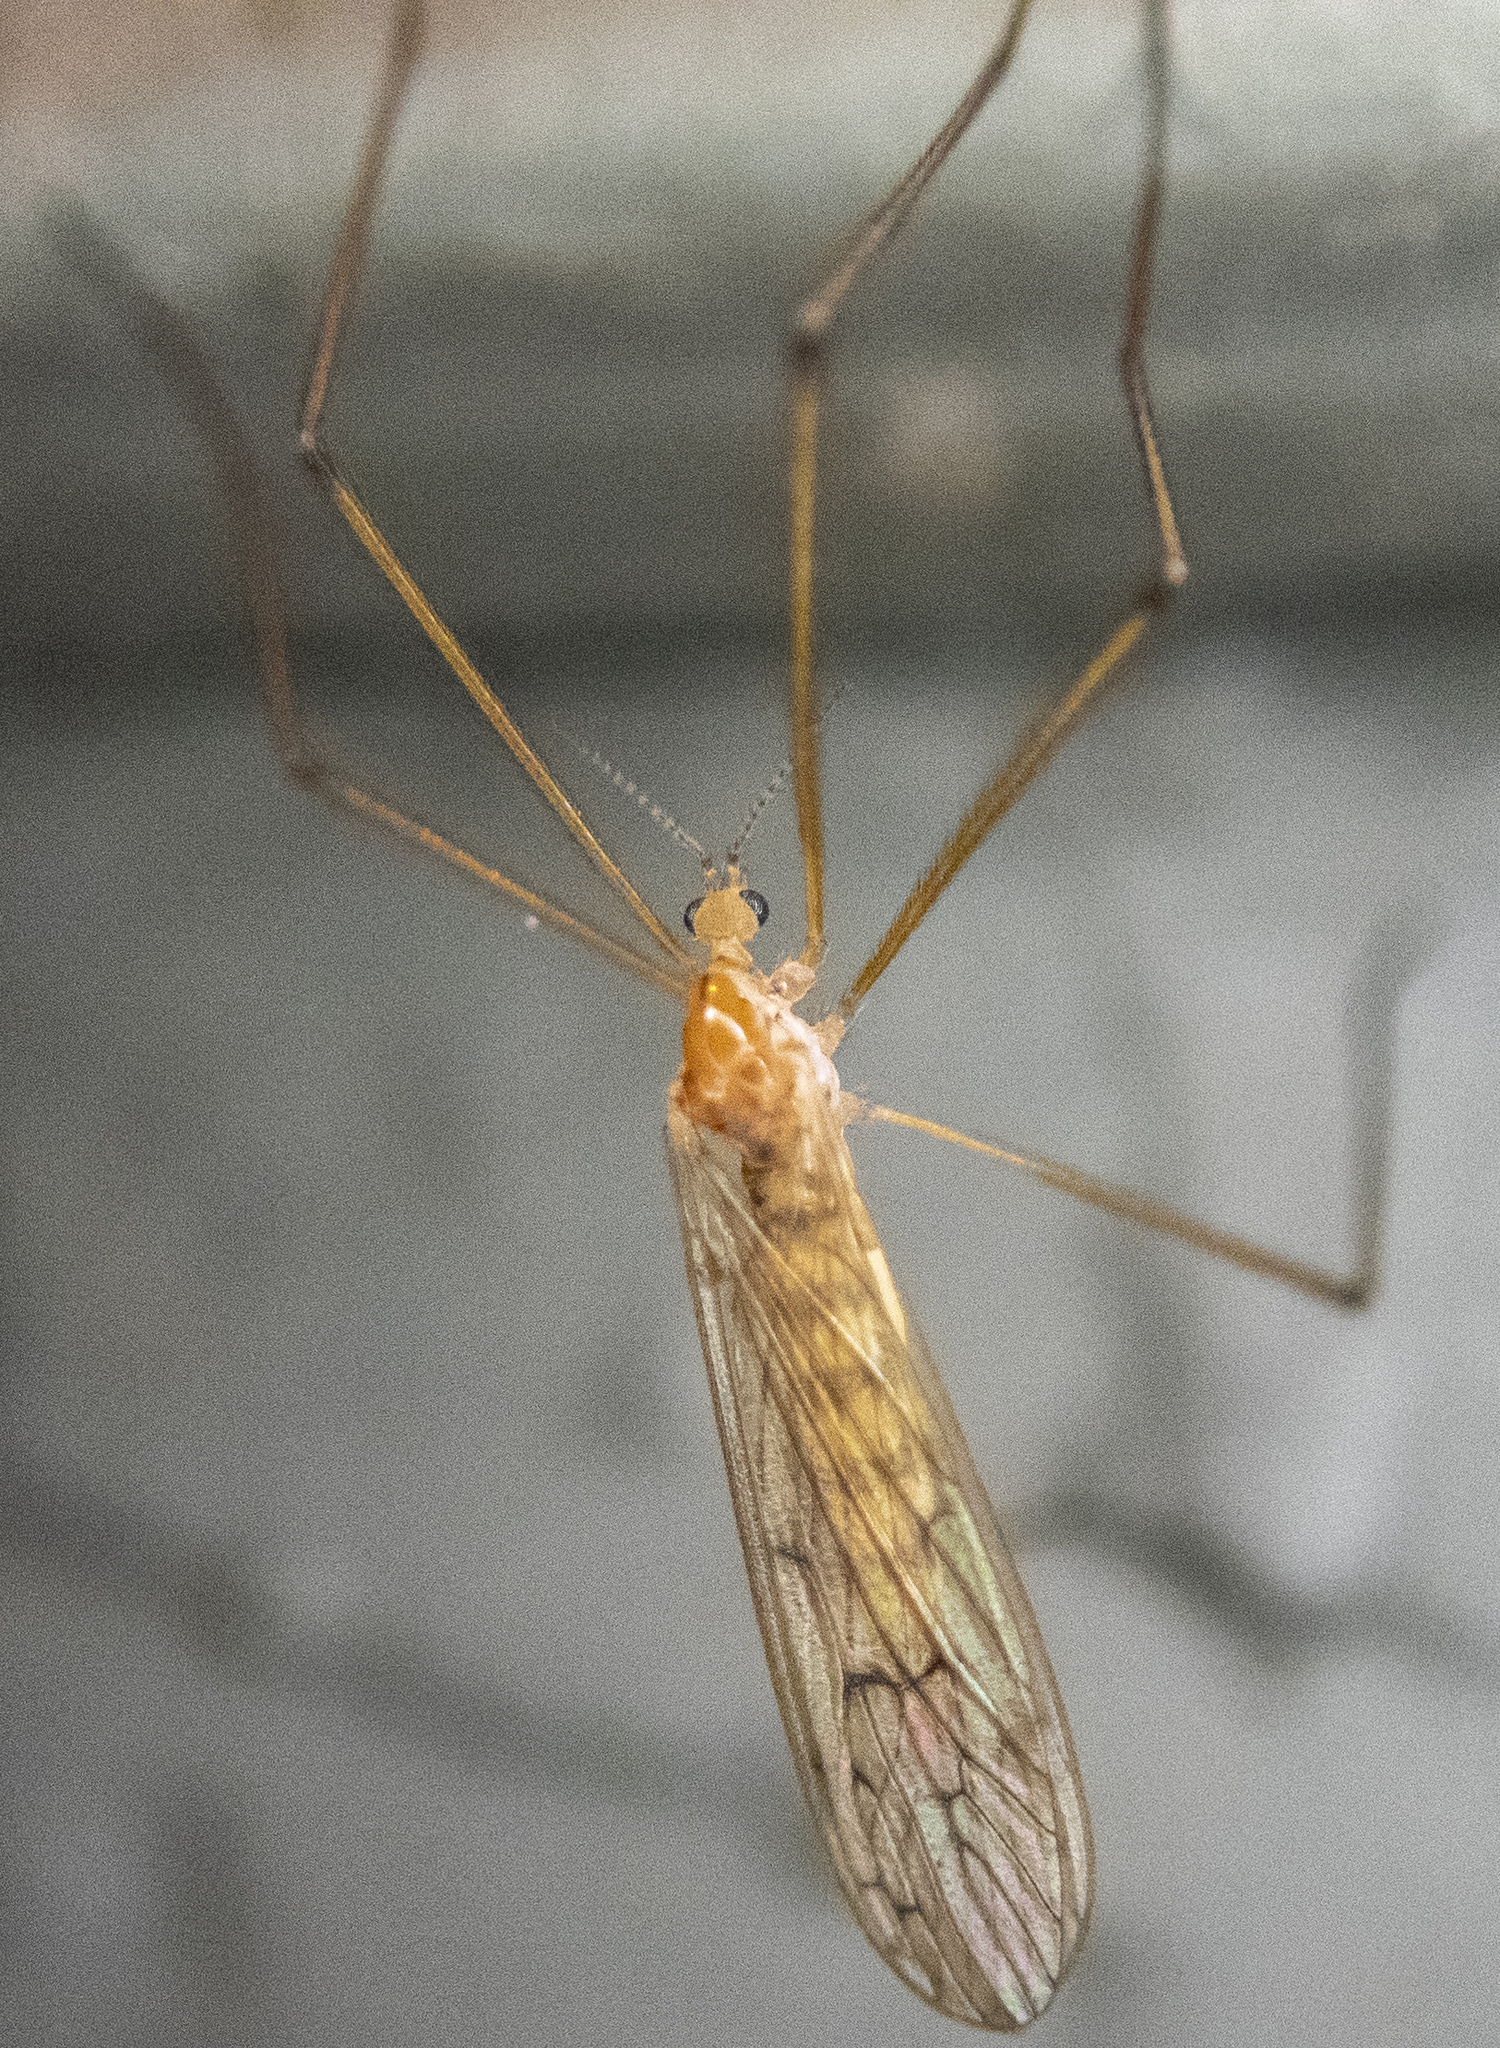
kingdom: Animalia
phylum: Arthropoda
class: Insecta
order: Diptera
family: Limoniidae
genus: Cladura
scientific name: Cladura flavoferruginea
